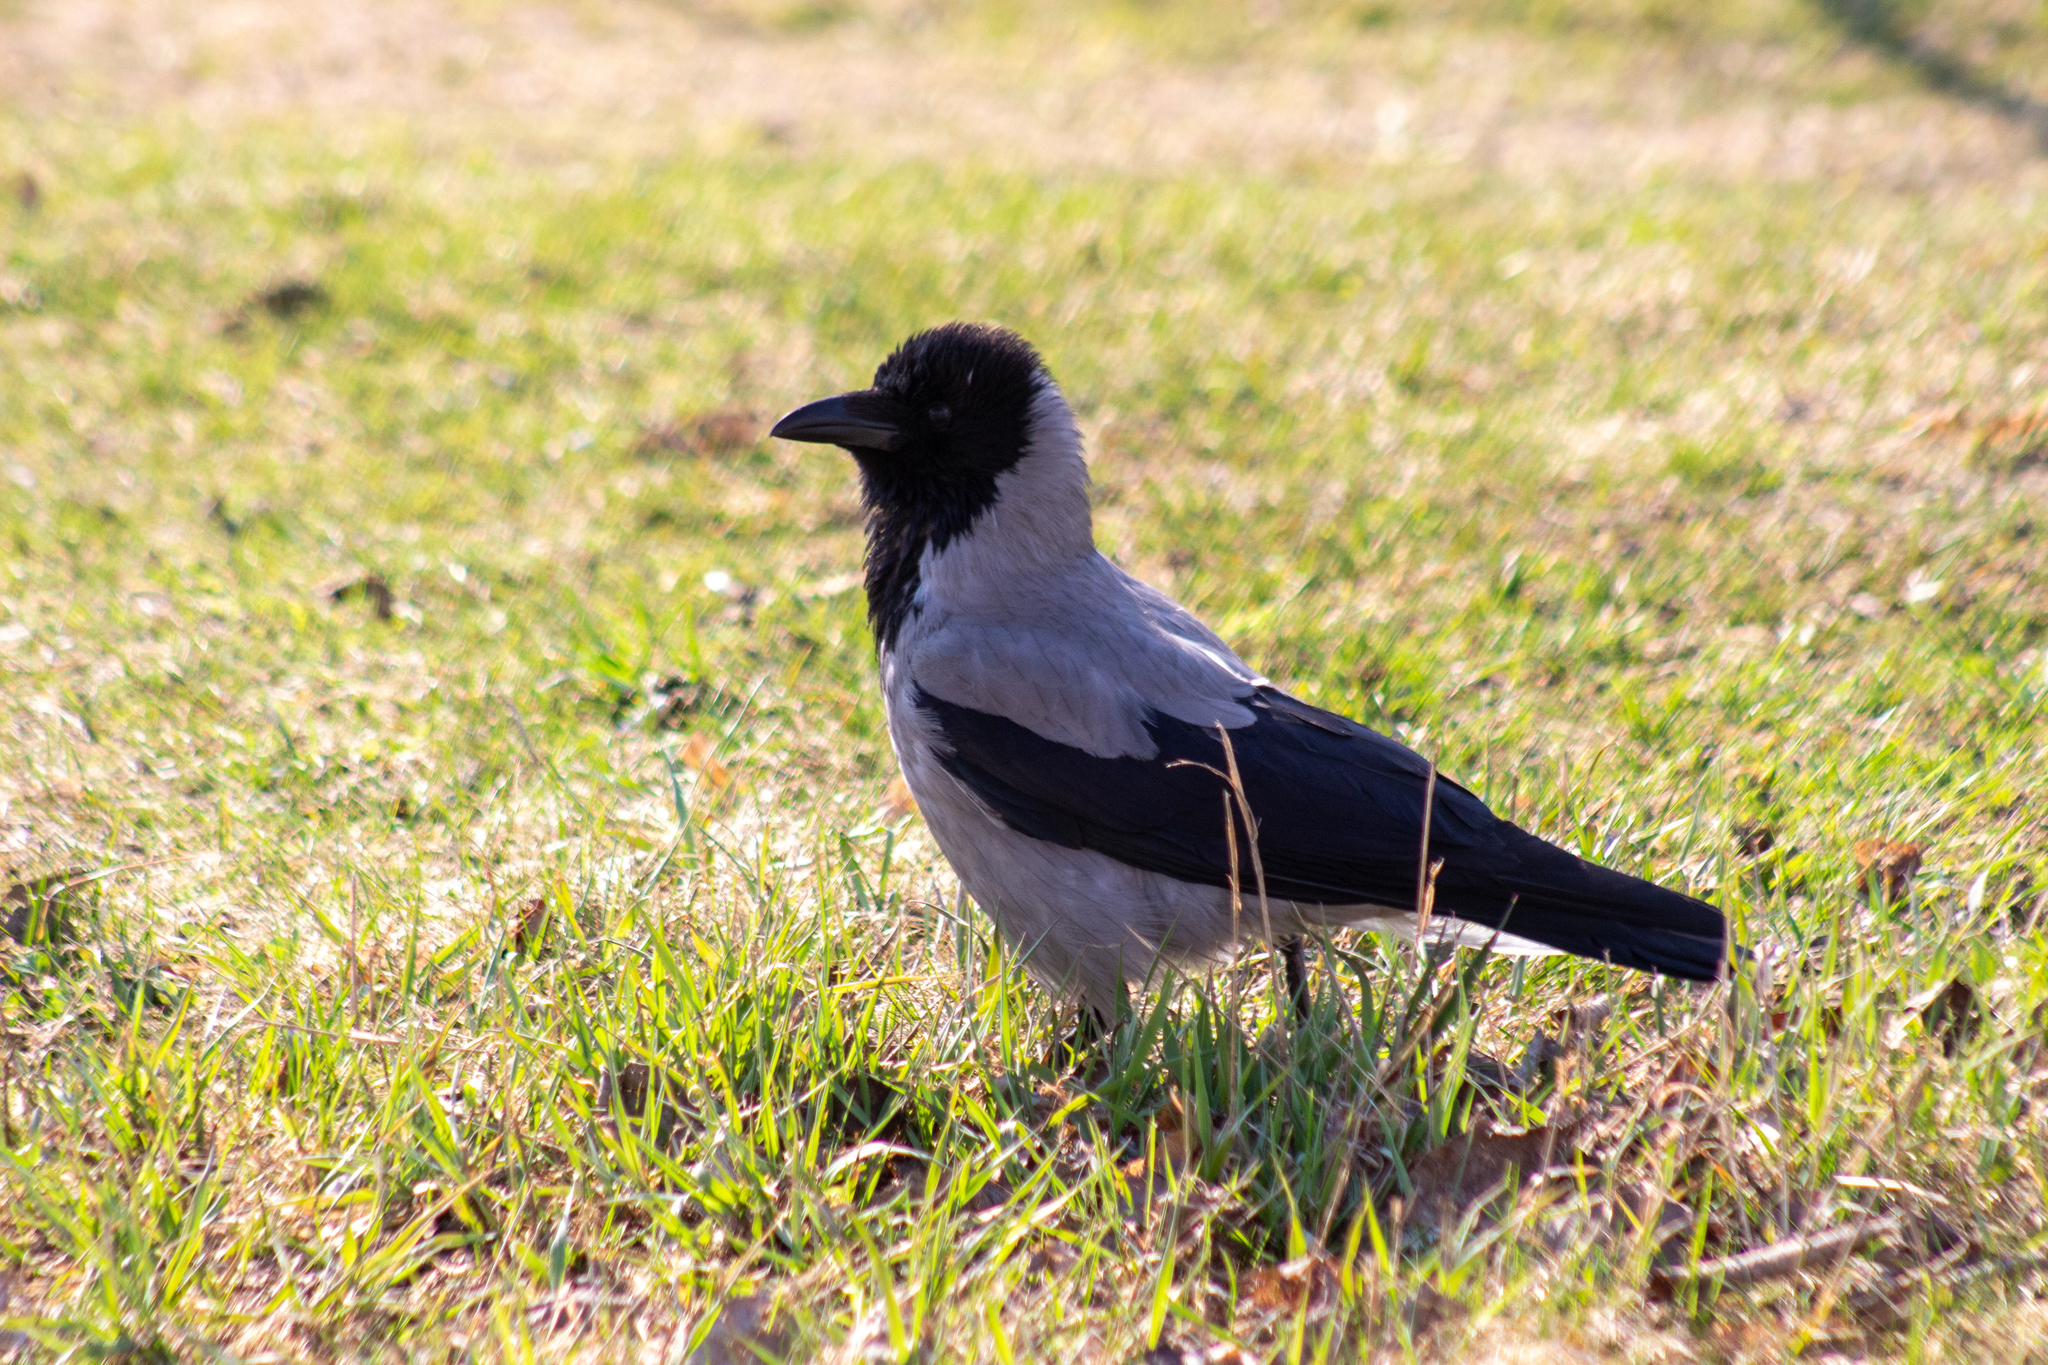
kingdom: Animalia
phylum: Chordata
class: Aves
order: Passeriformes
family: Corvidae
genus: Corvus
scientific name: Corvus cornix
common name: Hooded crow
